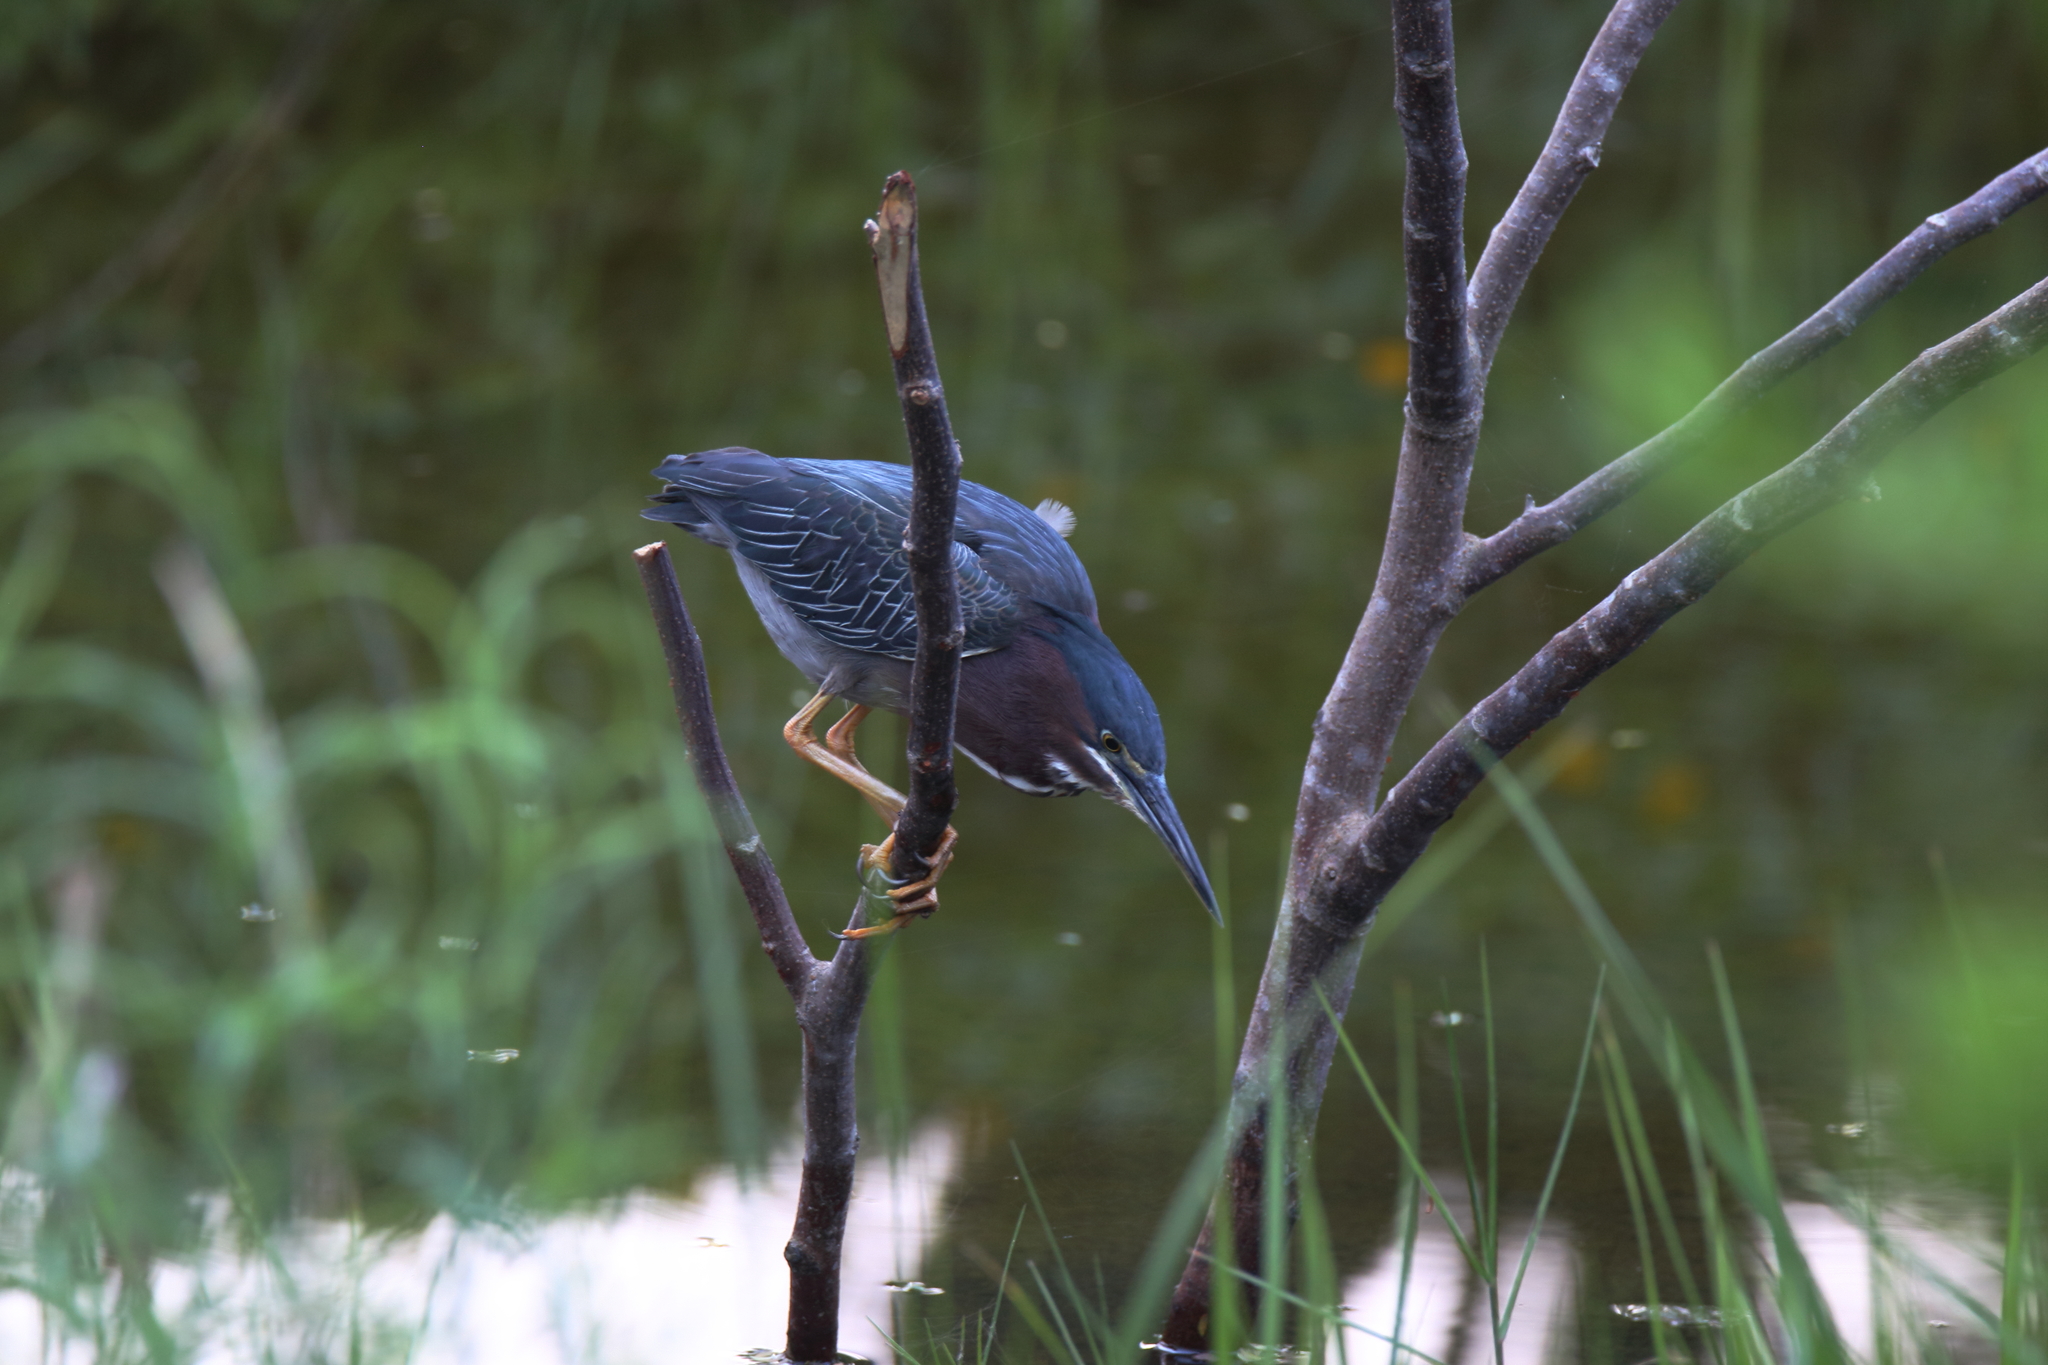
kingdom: Animalia
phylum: Chordata
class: Aves
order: Pelecaniformes
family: Ardeidae
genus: Butorides
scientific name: Butorides virescens
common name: Green heron
